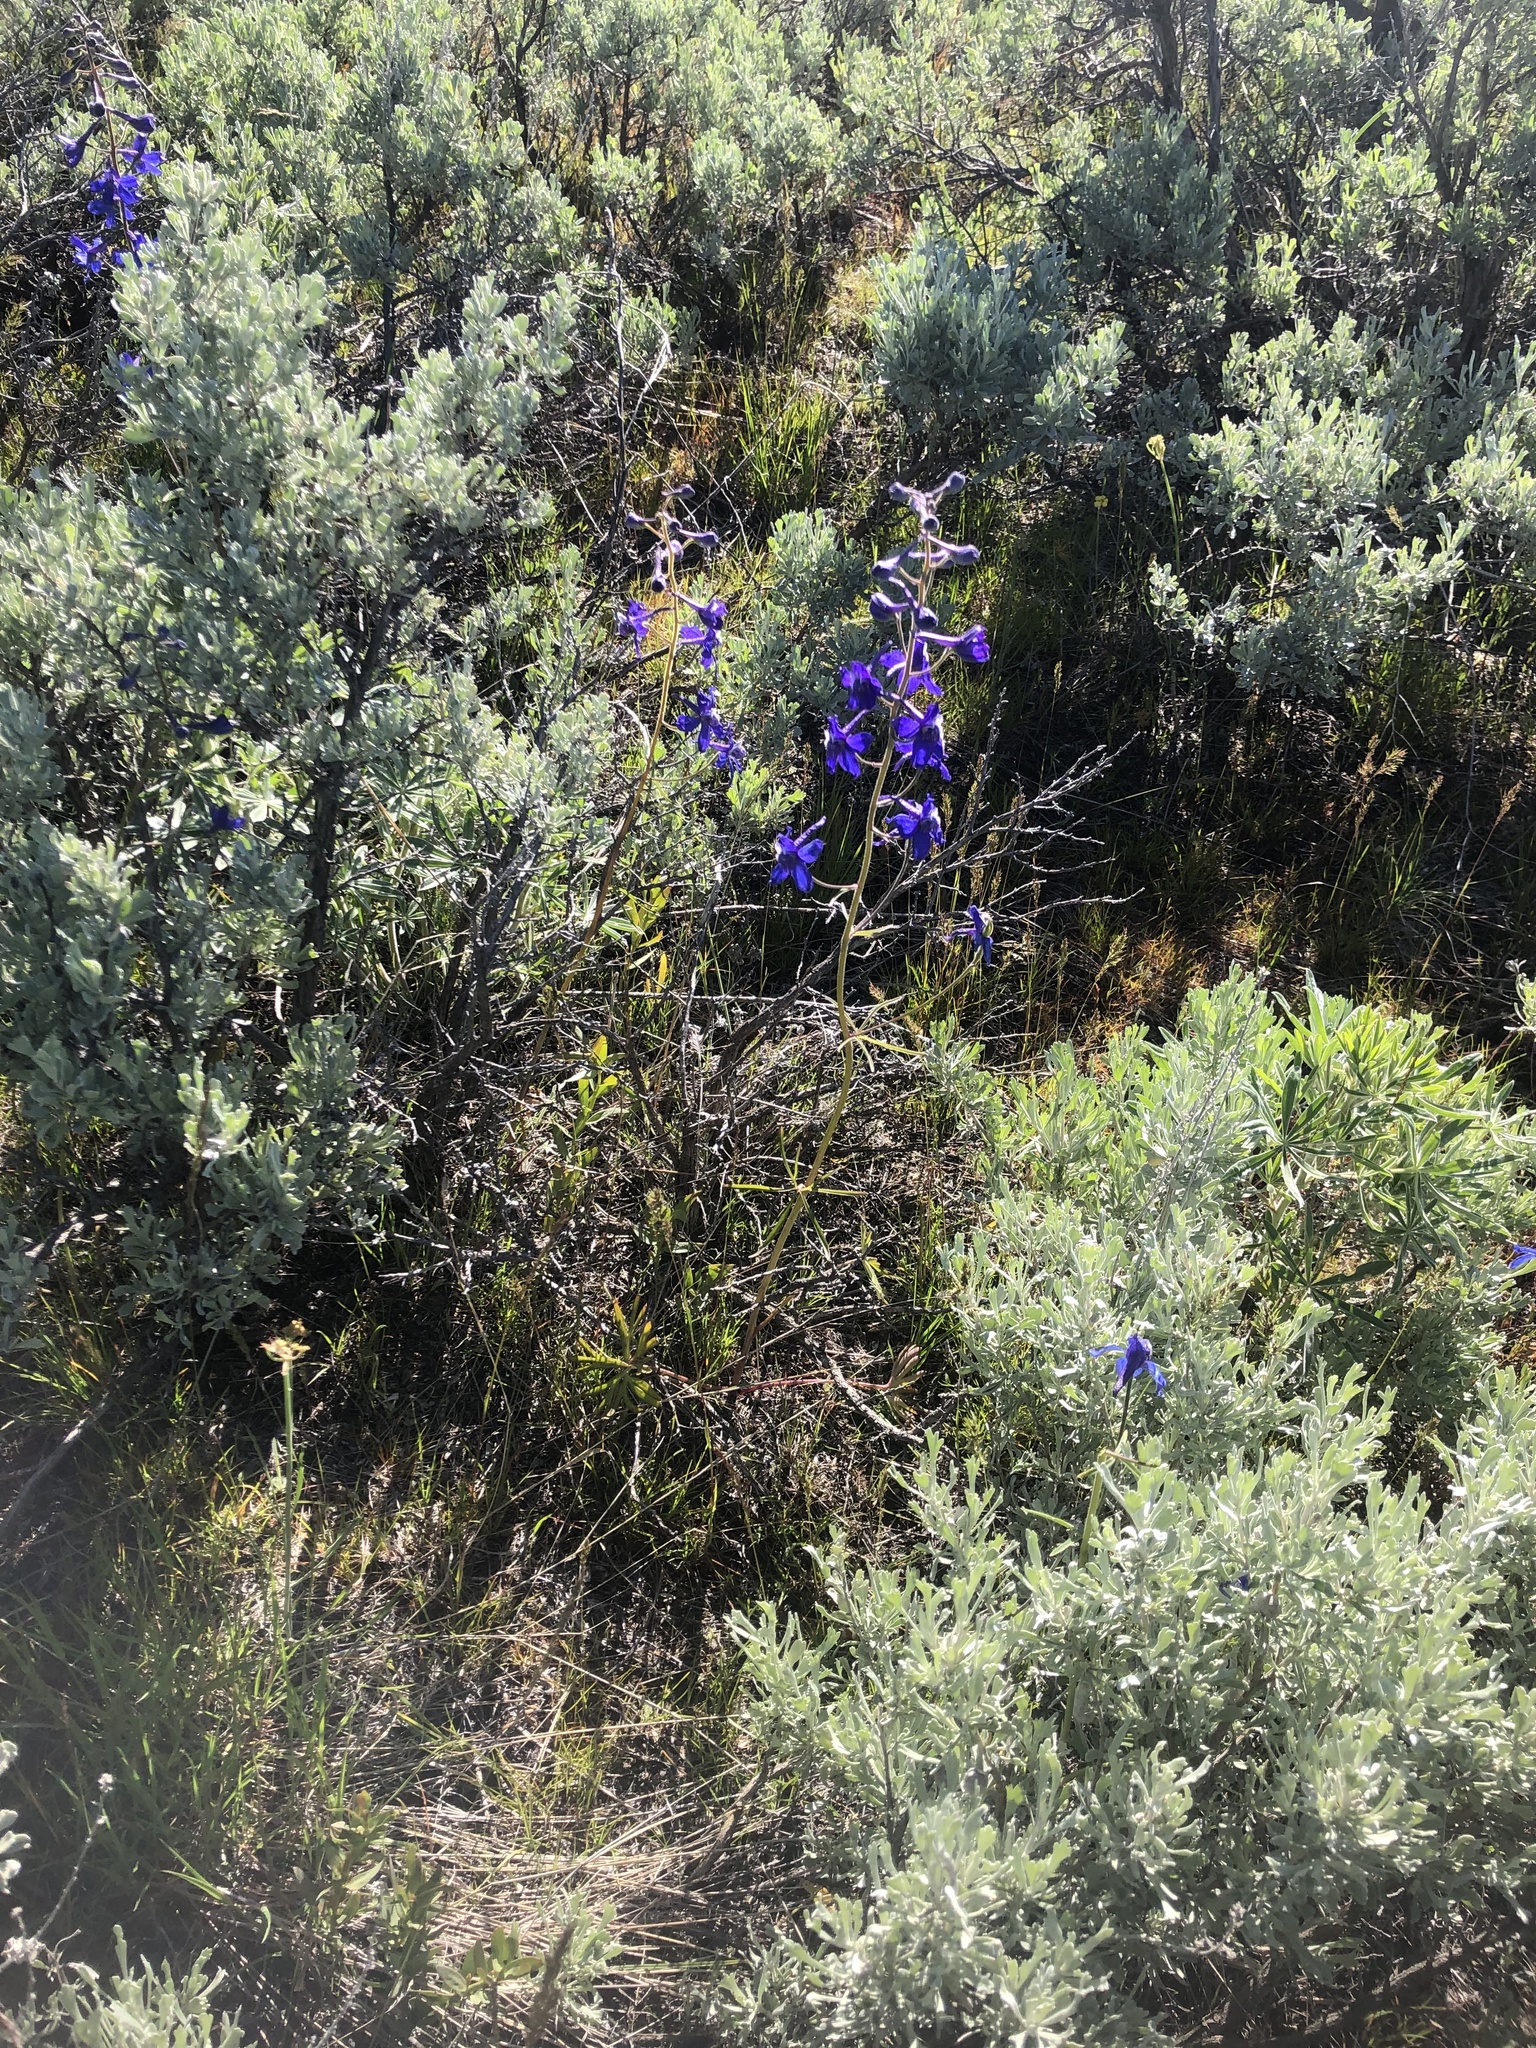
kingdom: Plantae
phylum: Tracheophyta
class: Magnoliopsida
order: Ranunculales
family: Ranunculaceae
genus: Delphinium
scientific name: Delphinium nuttallianum
